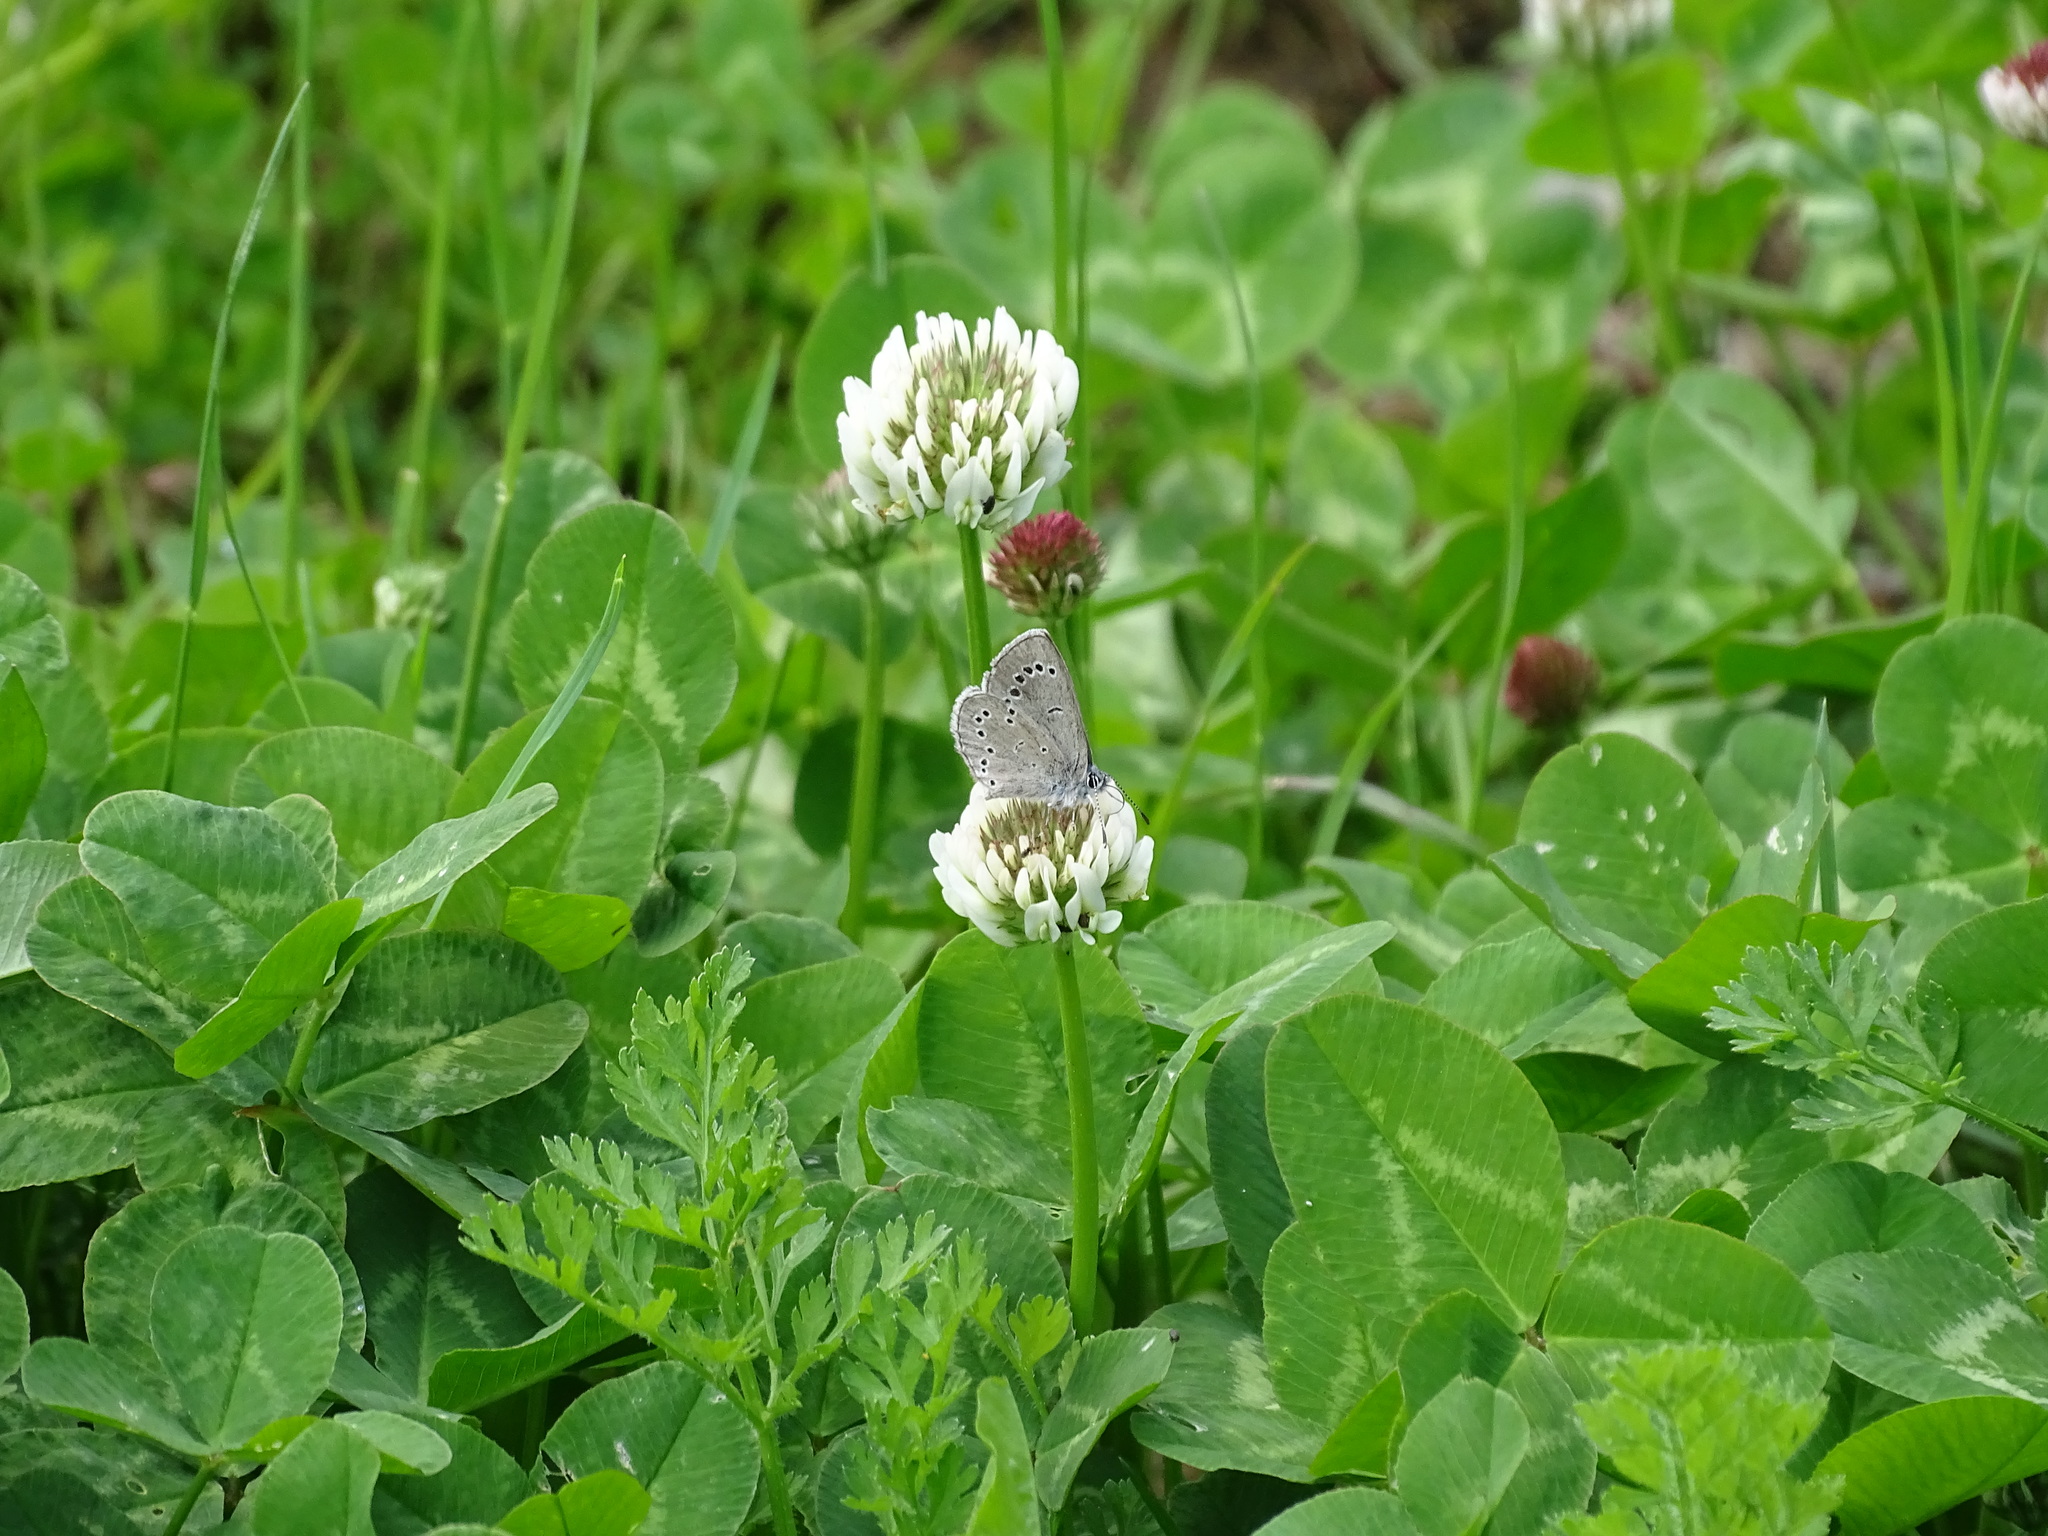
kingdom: Animalia
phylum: Arthropoda
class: Insecta
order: Lepidoptera
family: Lycaenidae
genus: Glaucopsyche
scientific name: Glaucopsyche lygdamus
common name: Silvery blue
